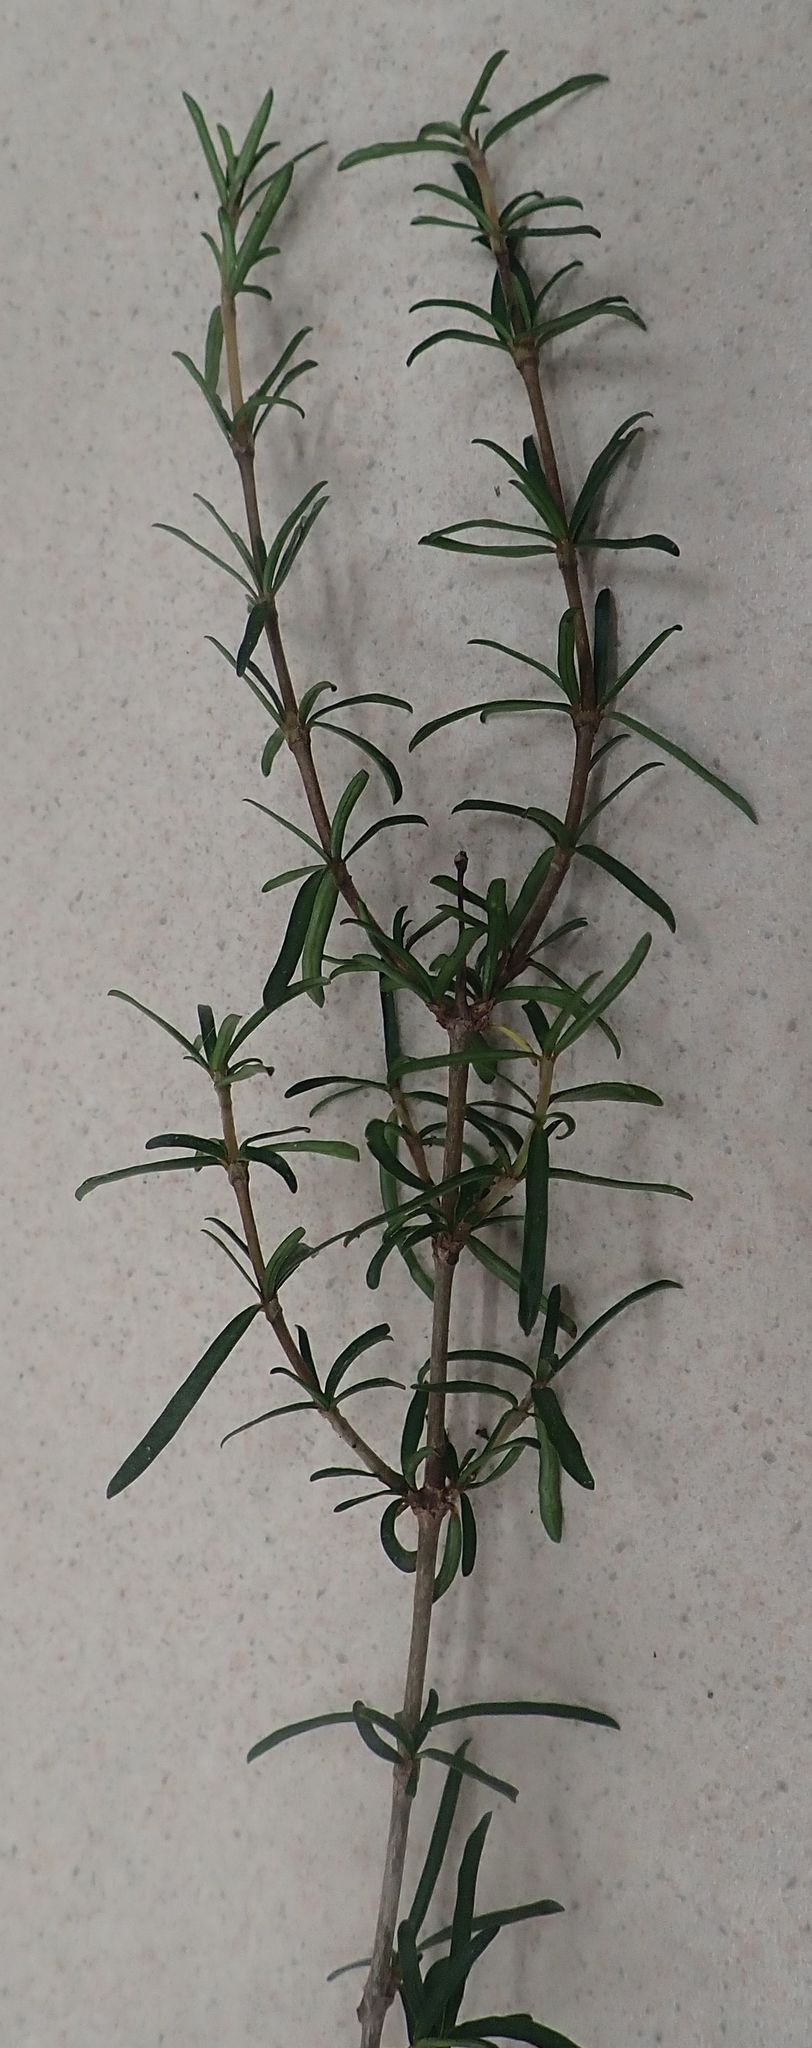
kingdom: Plantae
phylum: Tracheophyta
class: Magnoliopsida
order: Gentianales
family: Rubiaceae
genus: Coprosma
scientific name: Coprosma rugosa
